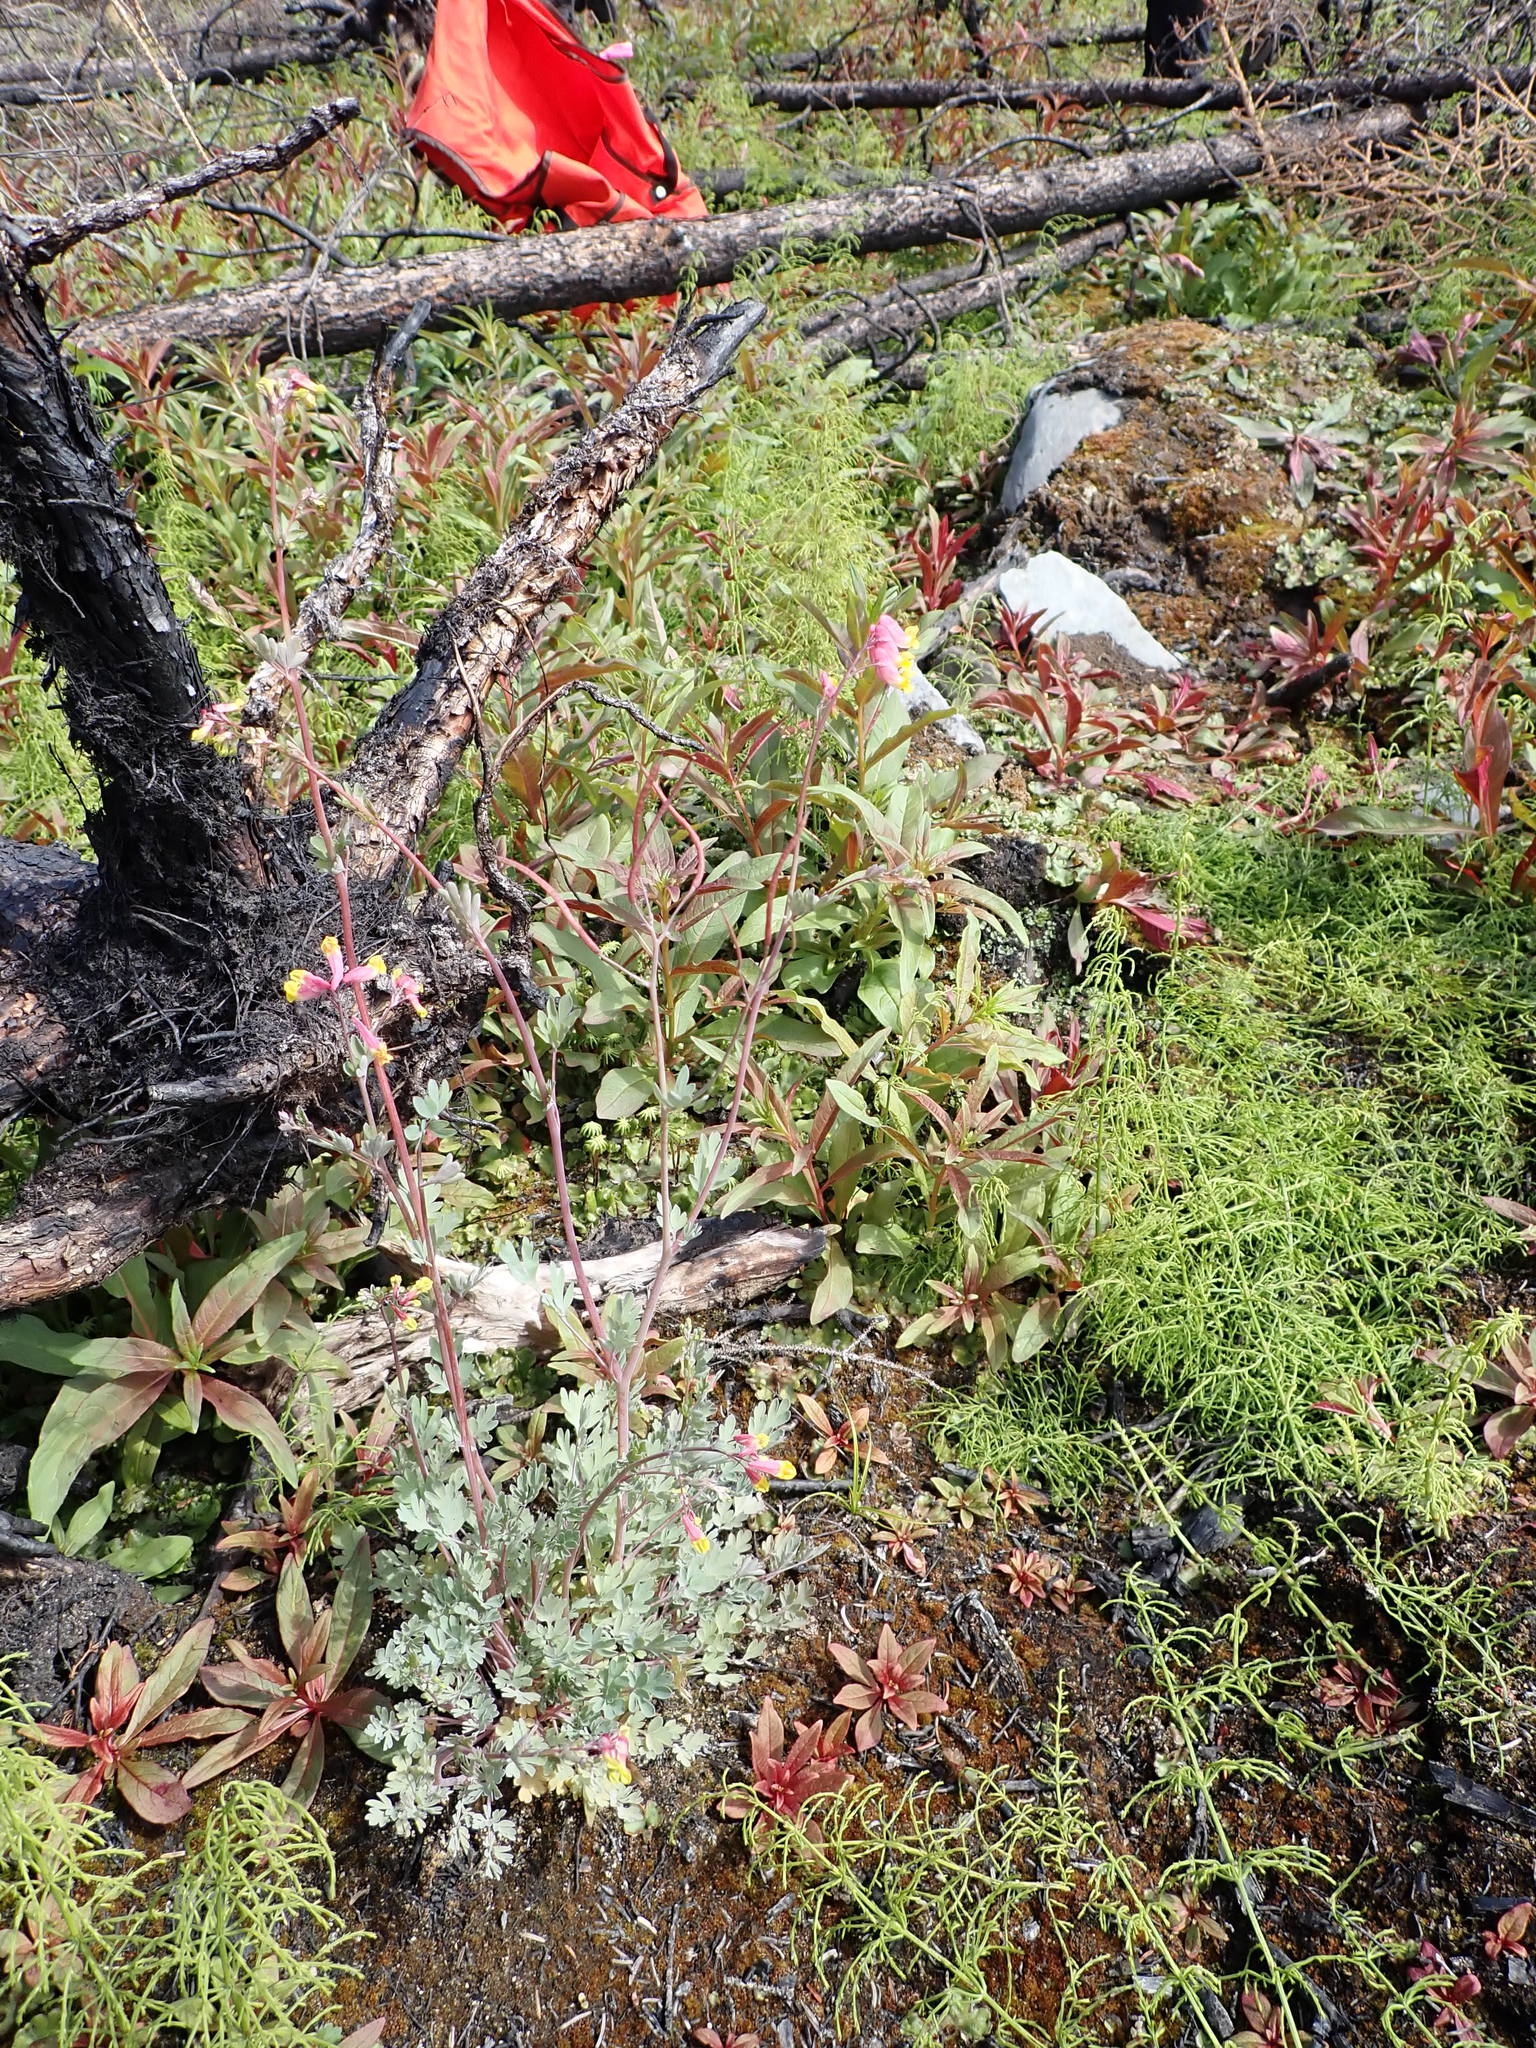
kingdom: Plantae
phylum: Tracheophyta
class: Magnoliopsida
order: Ranunculales
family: Papaveraceae
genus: Capnoides
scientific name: Capnoides sempervirens
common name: Rock harlequin
